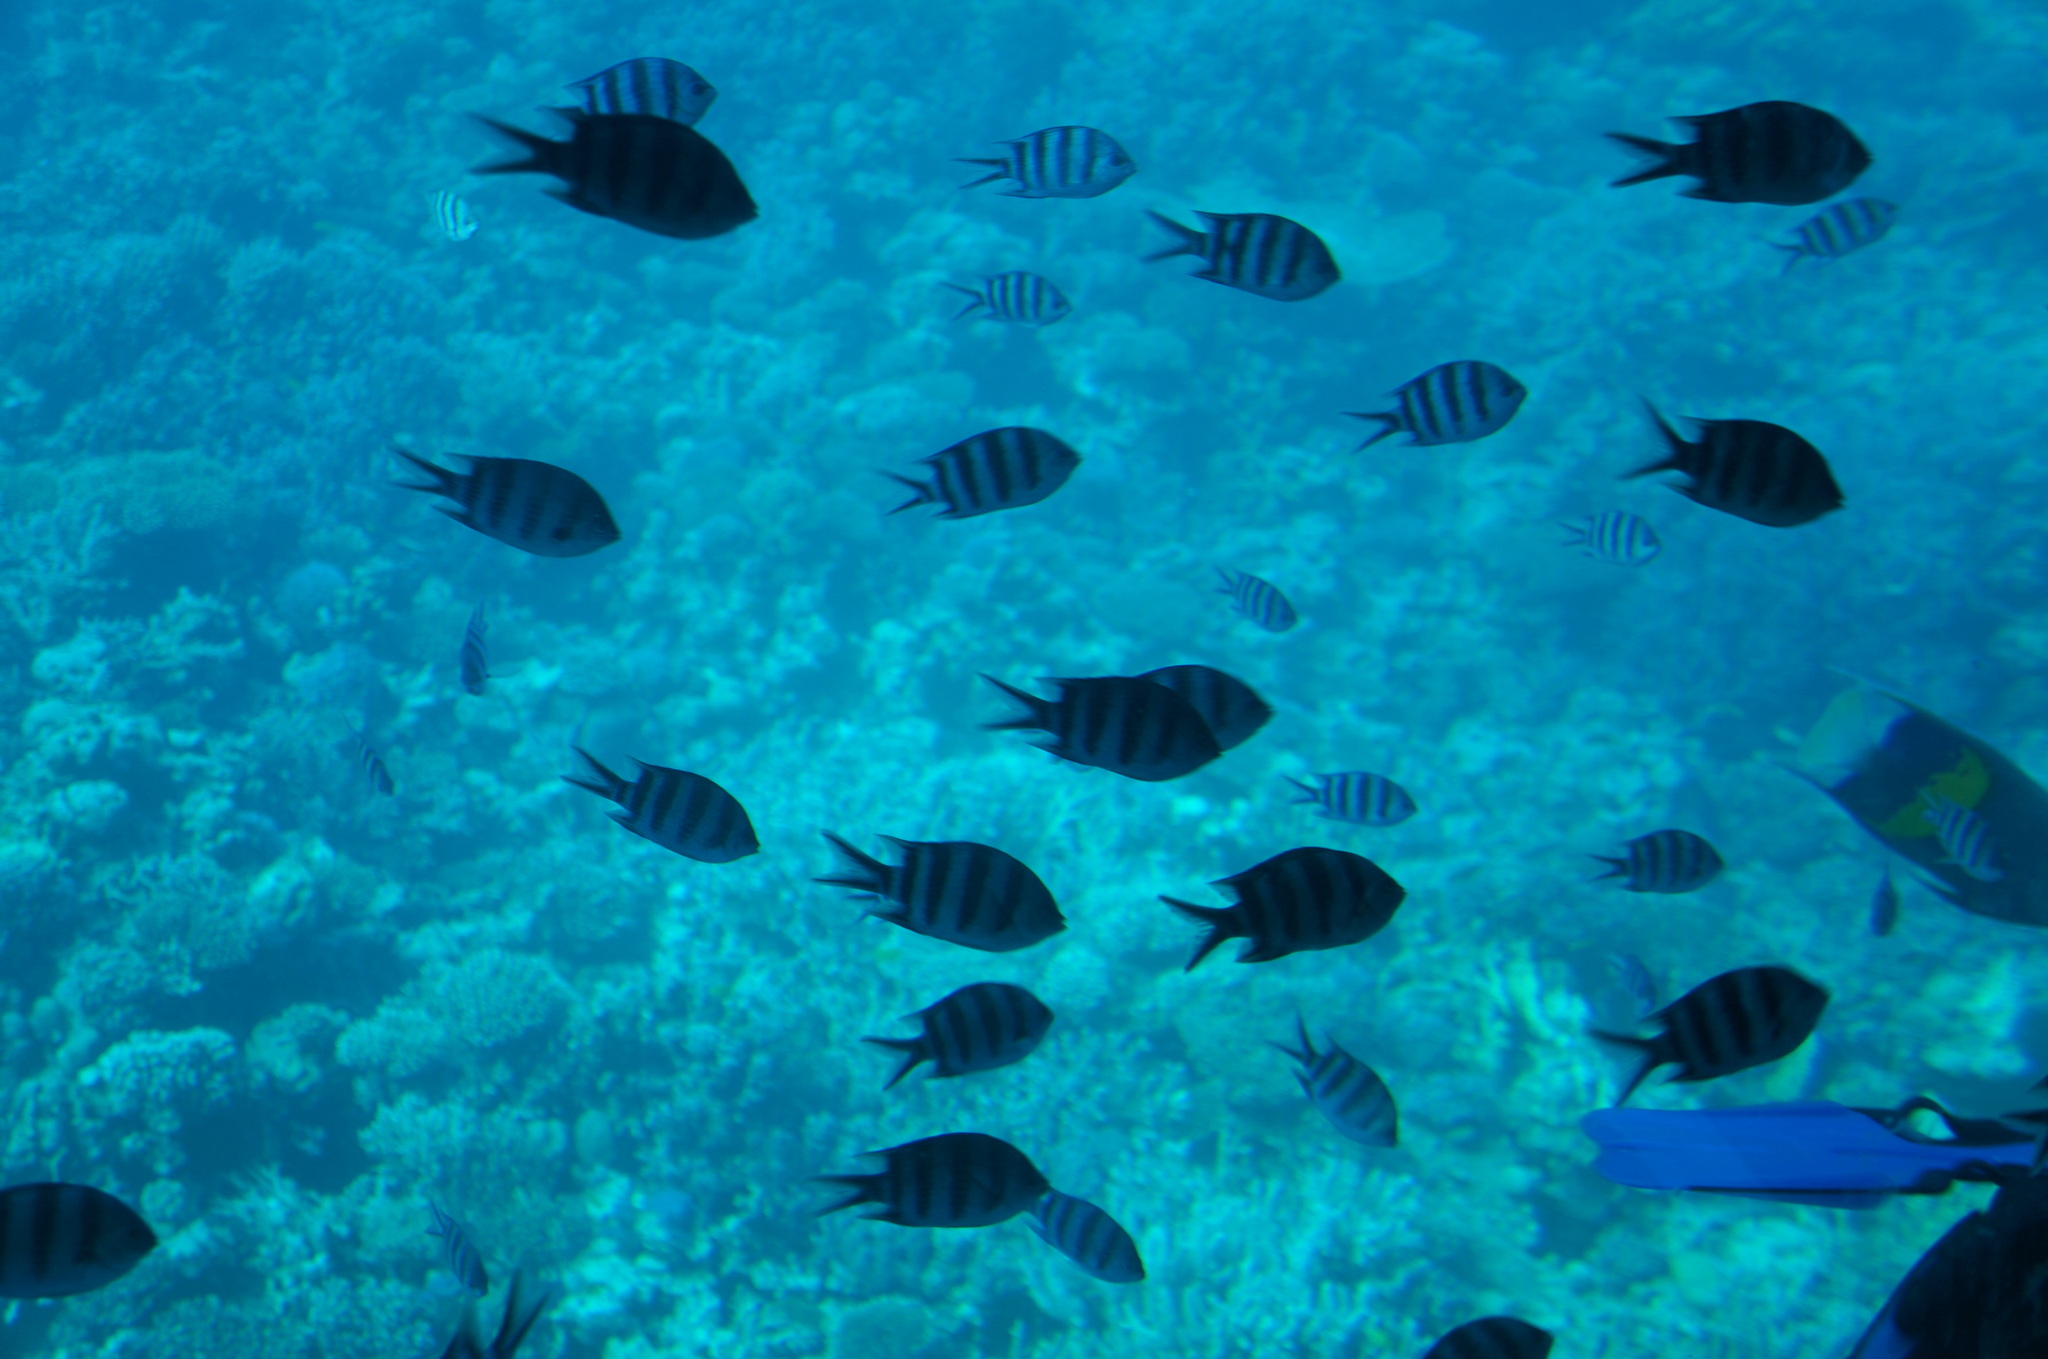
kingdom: Animalia
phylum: Chordata
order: Perciformes
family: Pomacentridae
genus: Abudefduf
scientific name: Abudefduf sexfasciatus
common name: Scissortail sergeant
